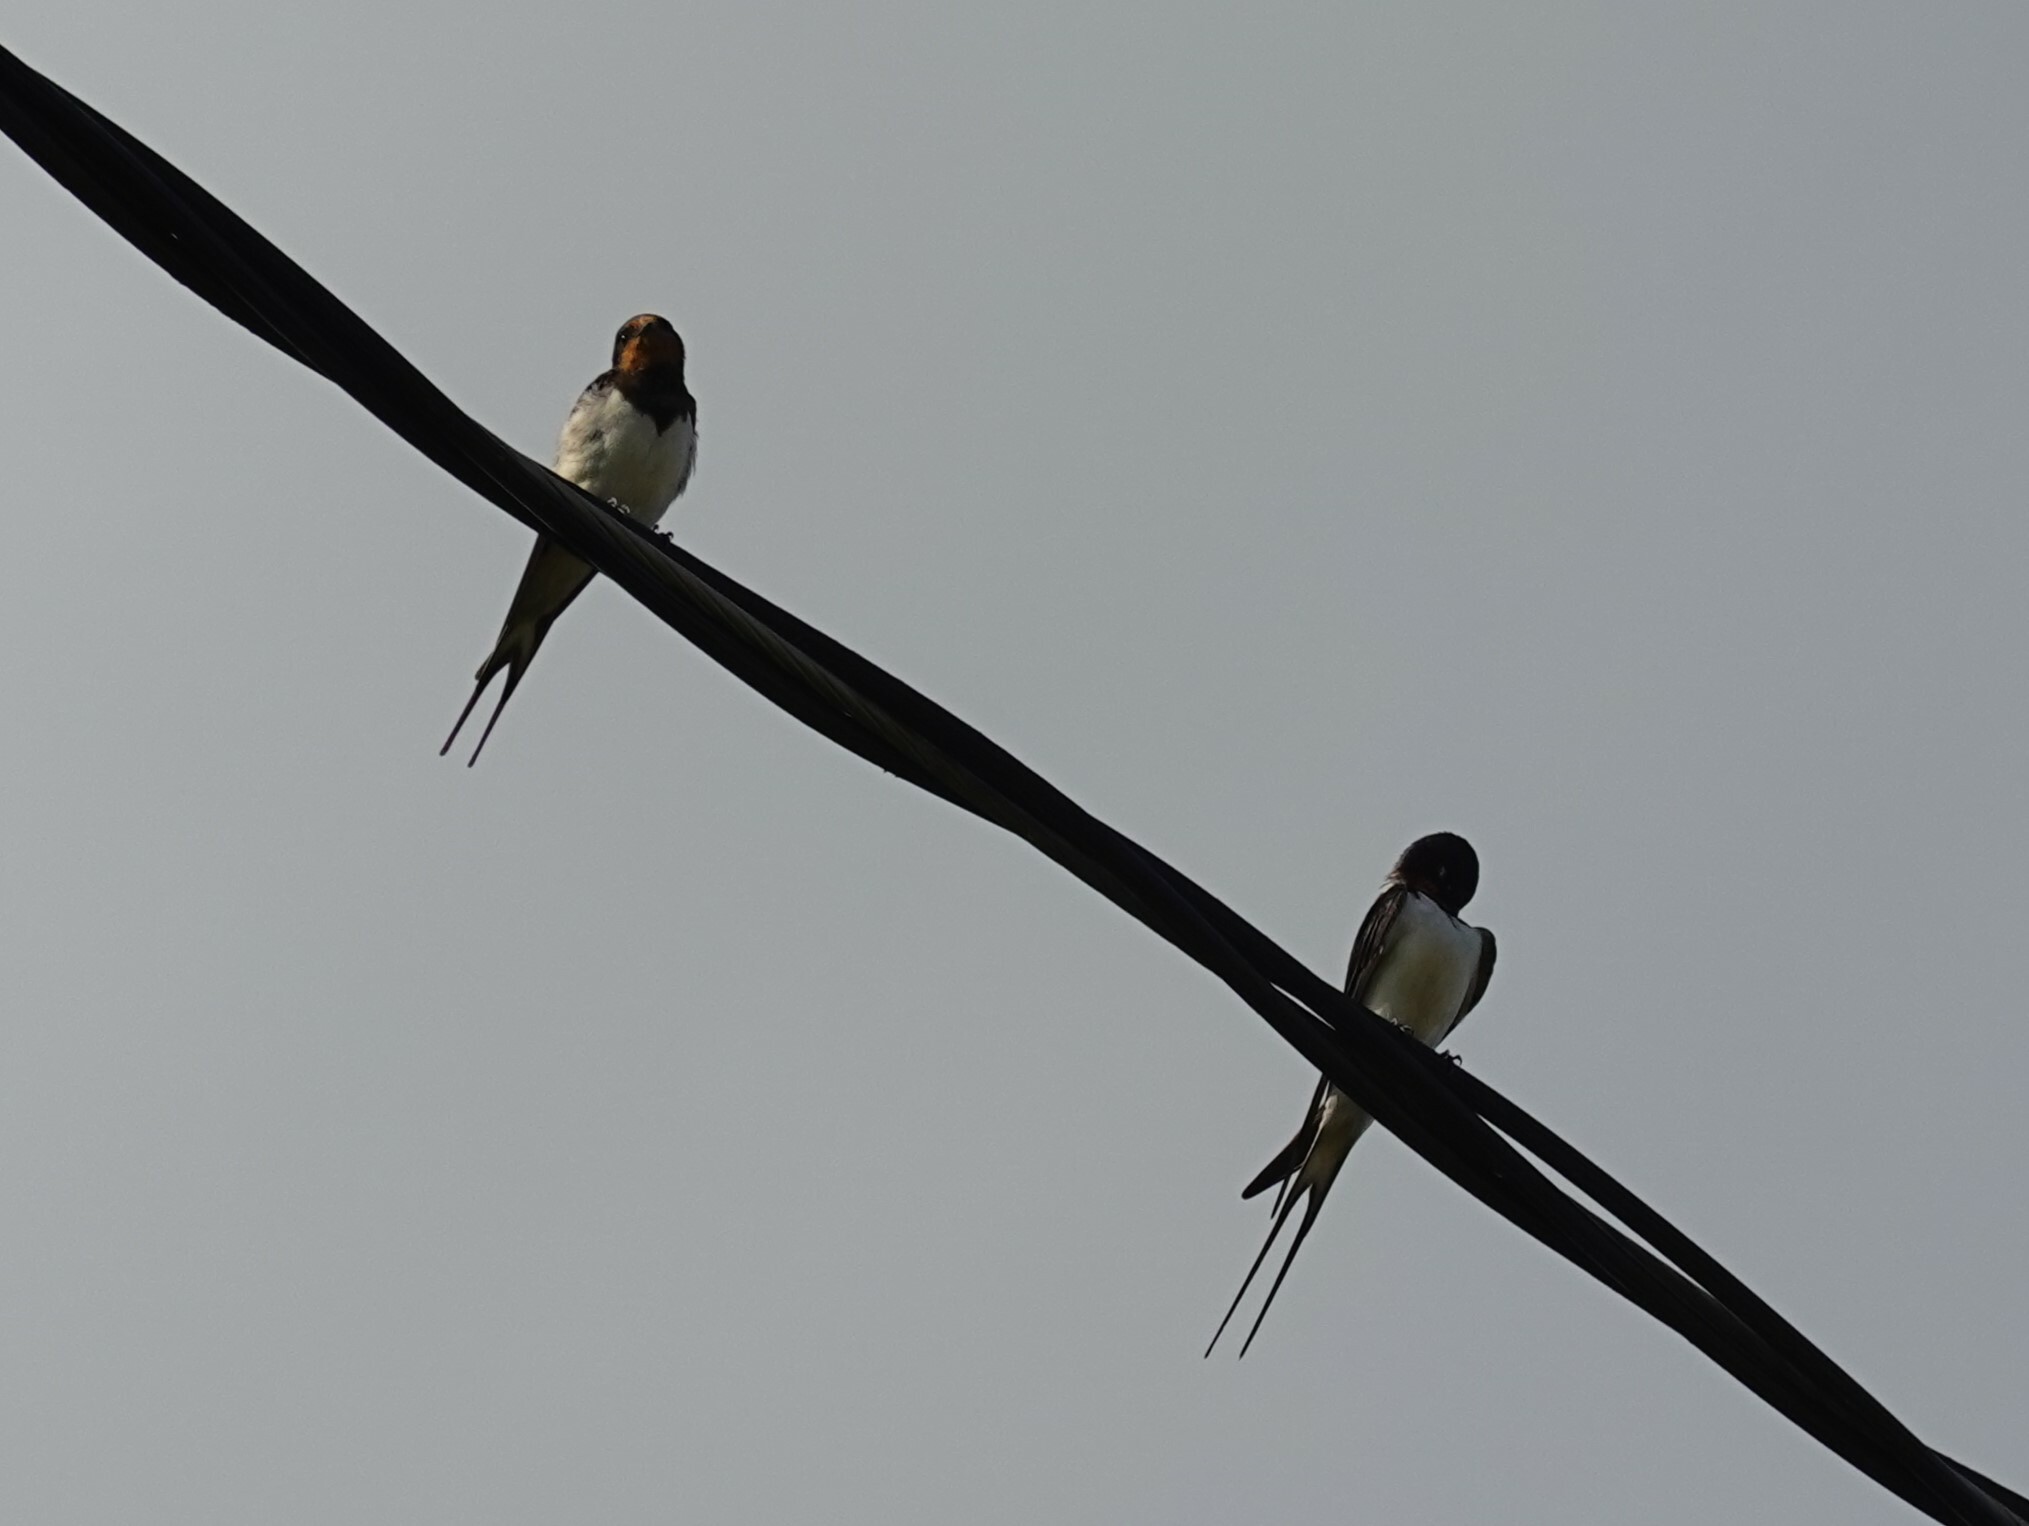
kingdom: Animalia
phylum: Chordata
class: Aves
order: Passeriformes
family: Hirundinidae
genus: Hirundo
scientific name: Hirundo rustica
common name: Barn swallow
